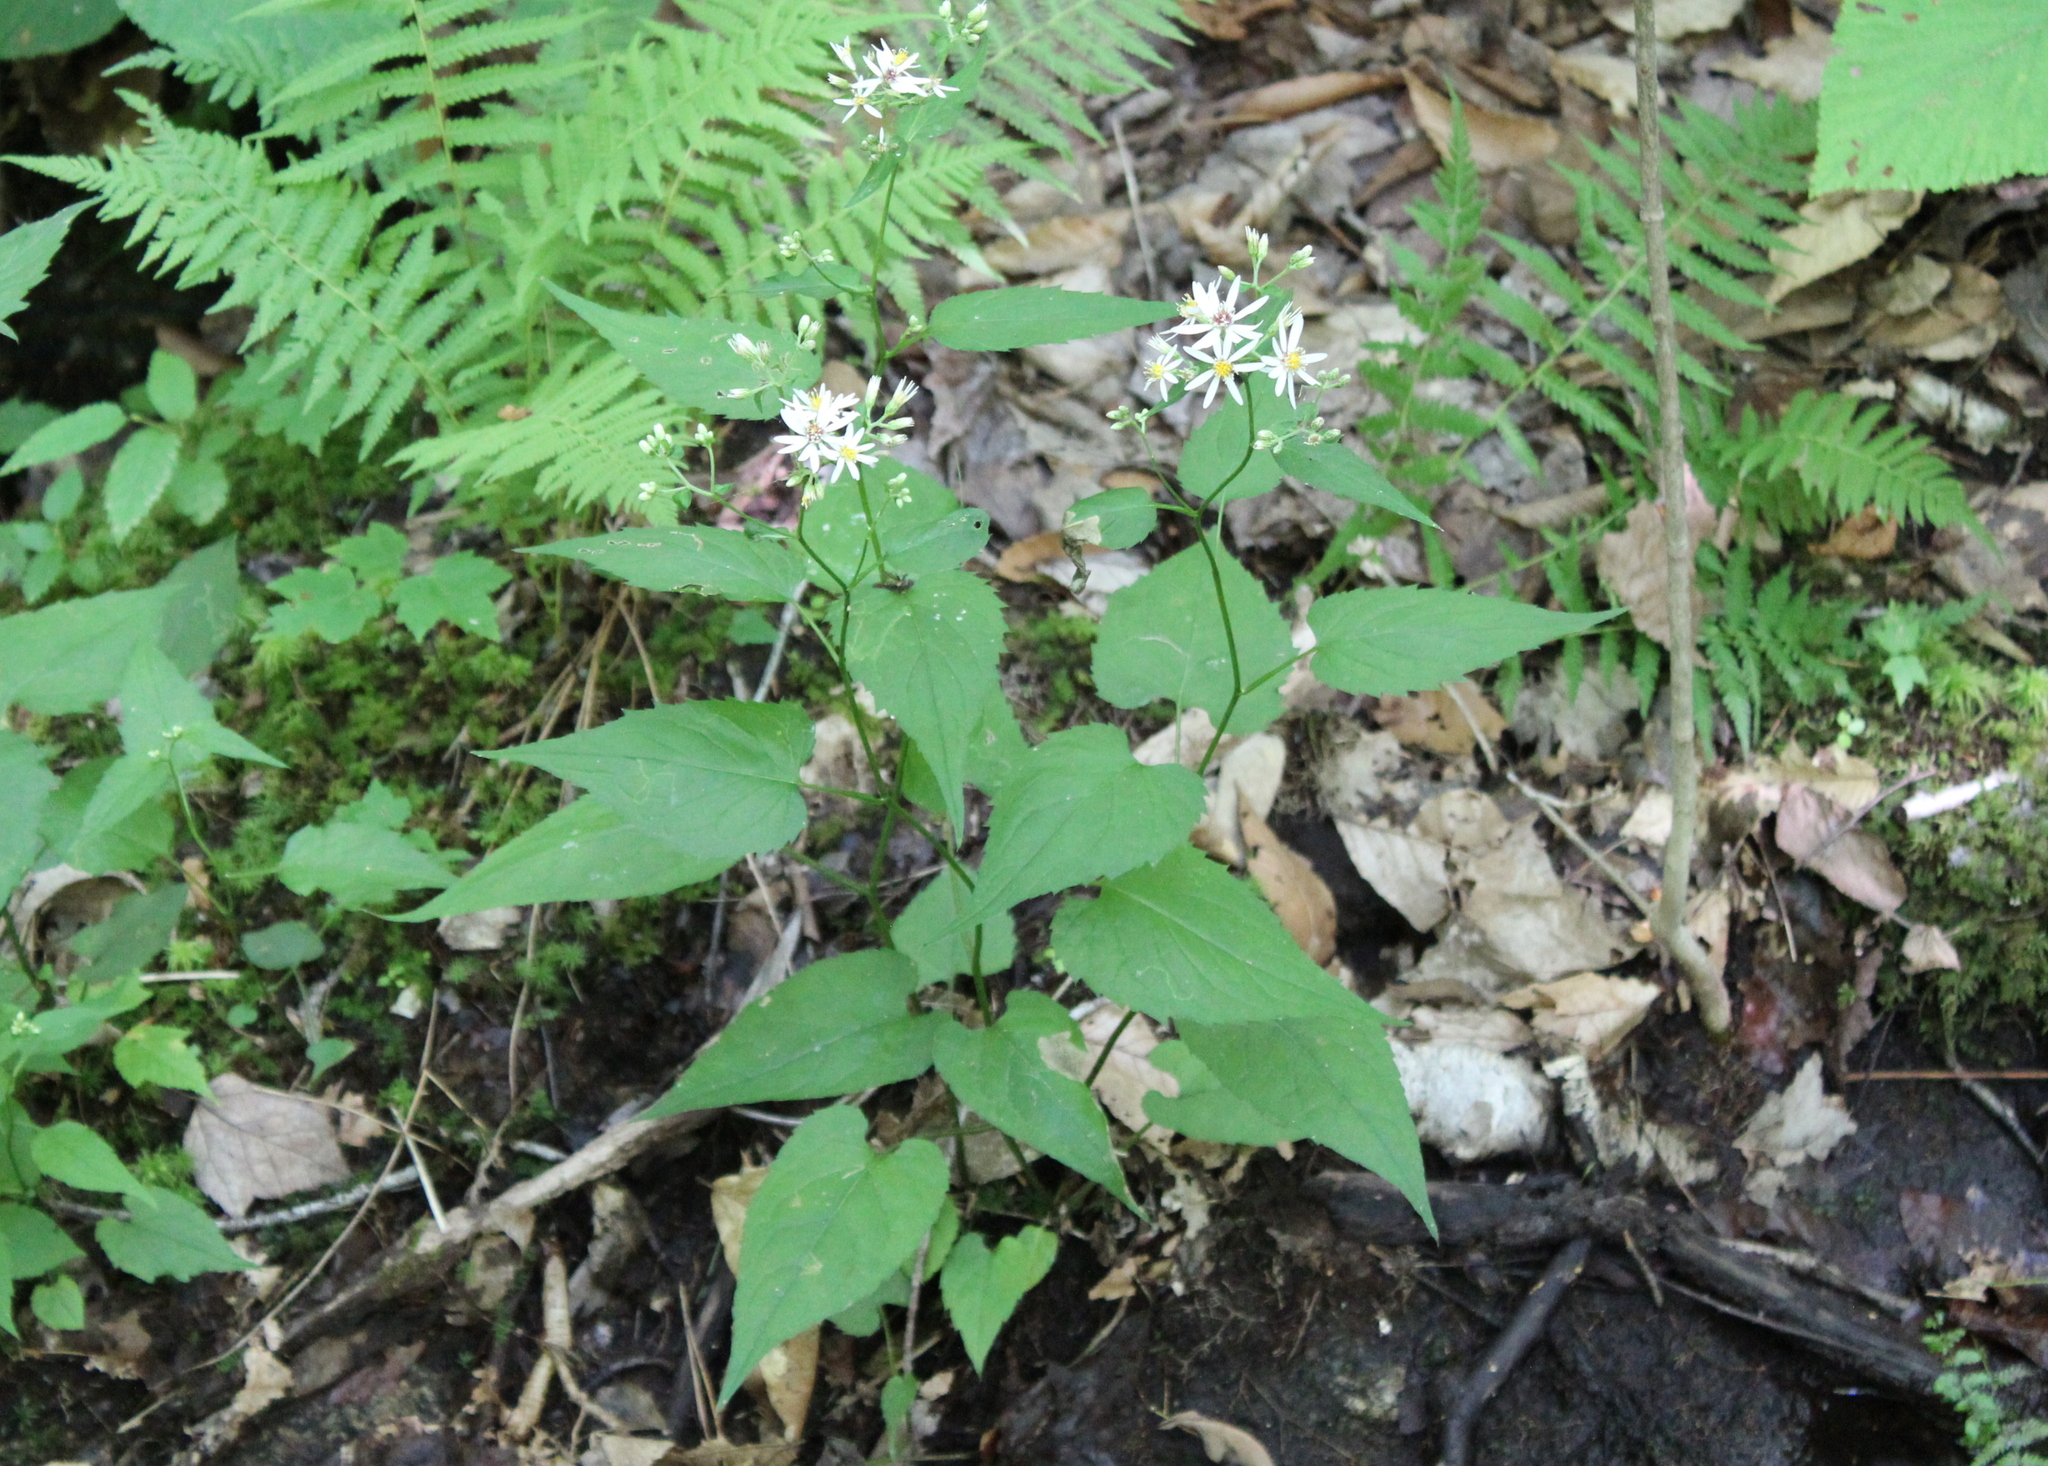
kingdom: Plantae
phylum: Tracheophyta
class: Magnoliopsida
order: Asterales
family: Asteraceae
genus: Eurybia
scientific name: Eurybia divaricata
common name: White wood aster
